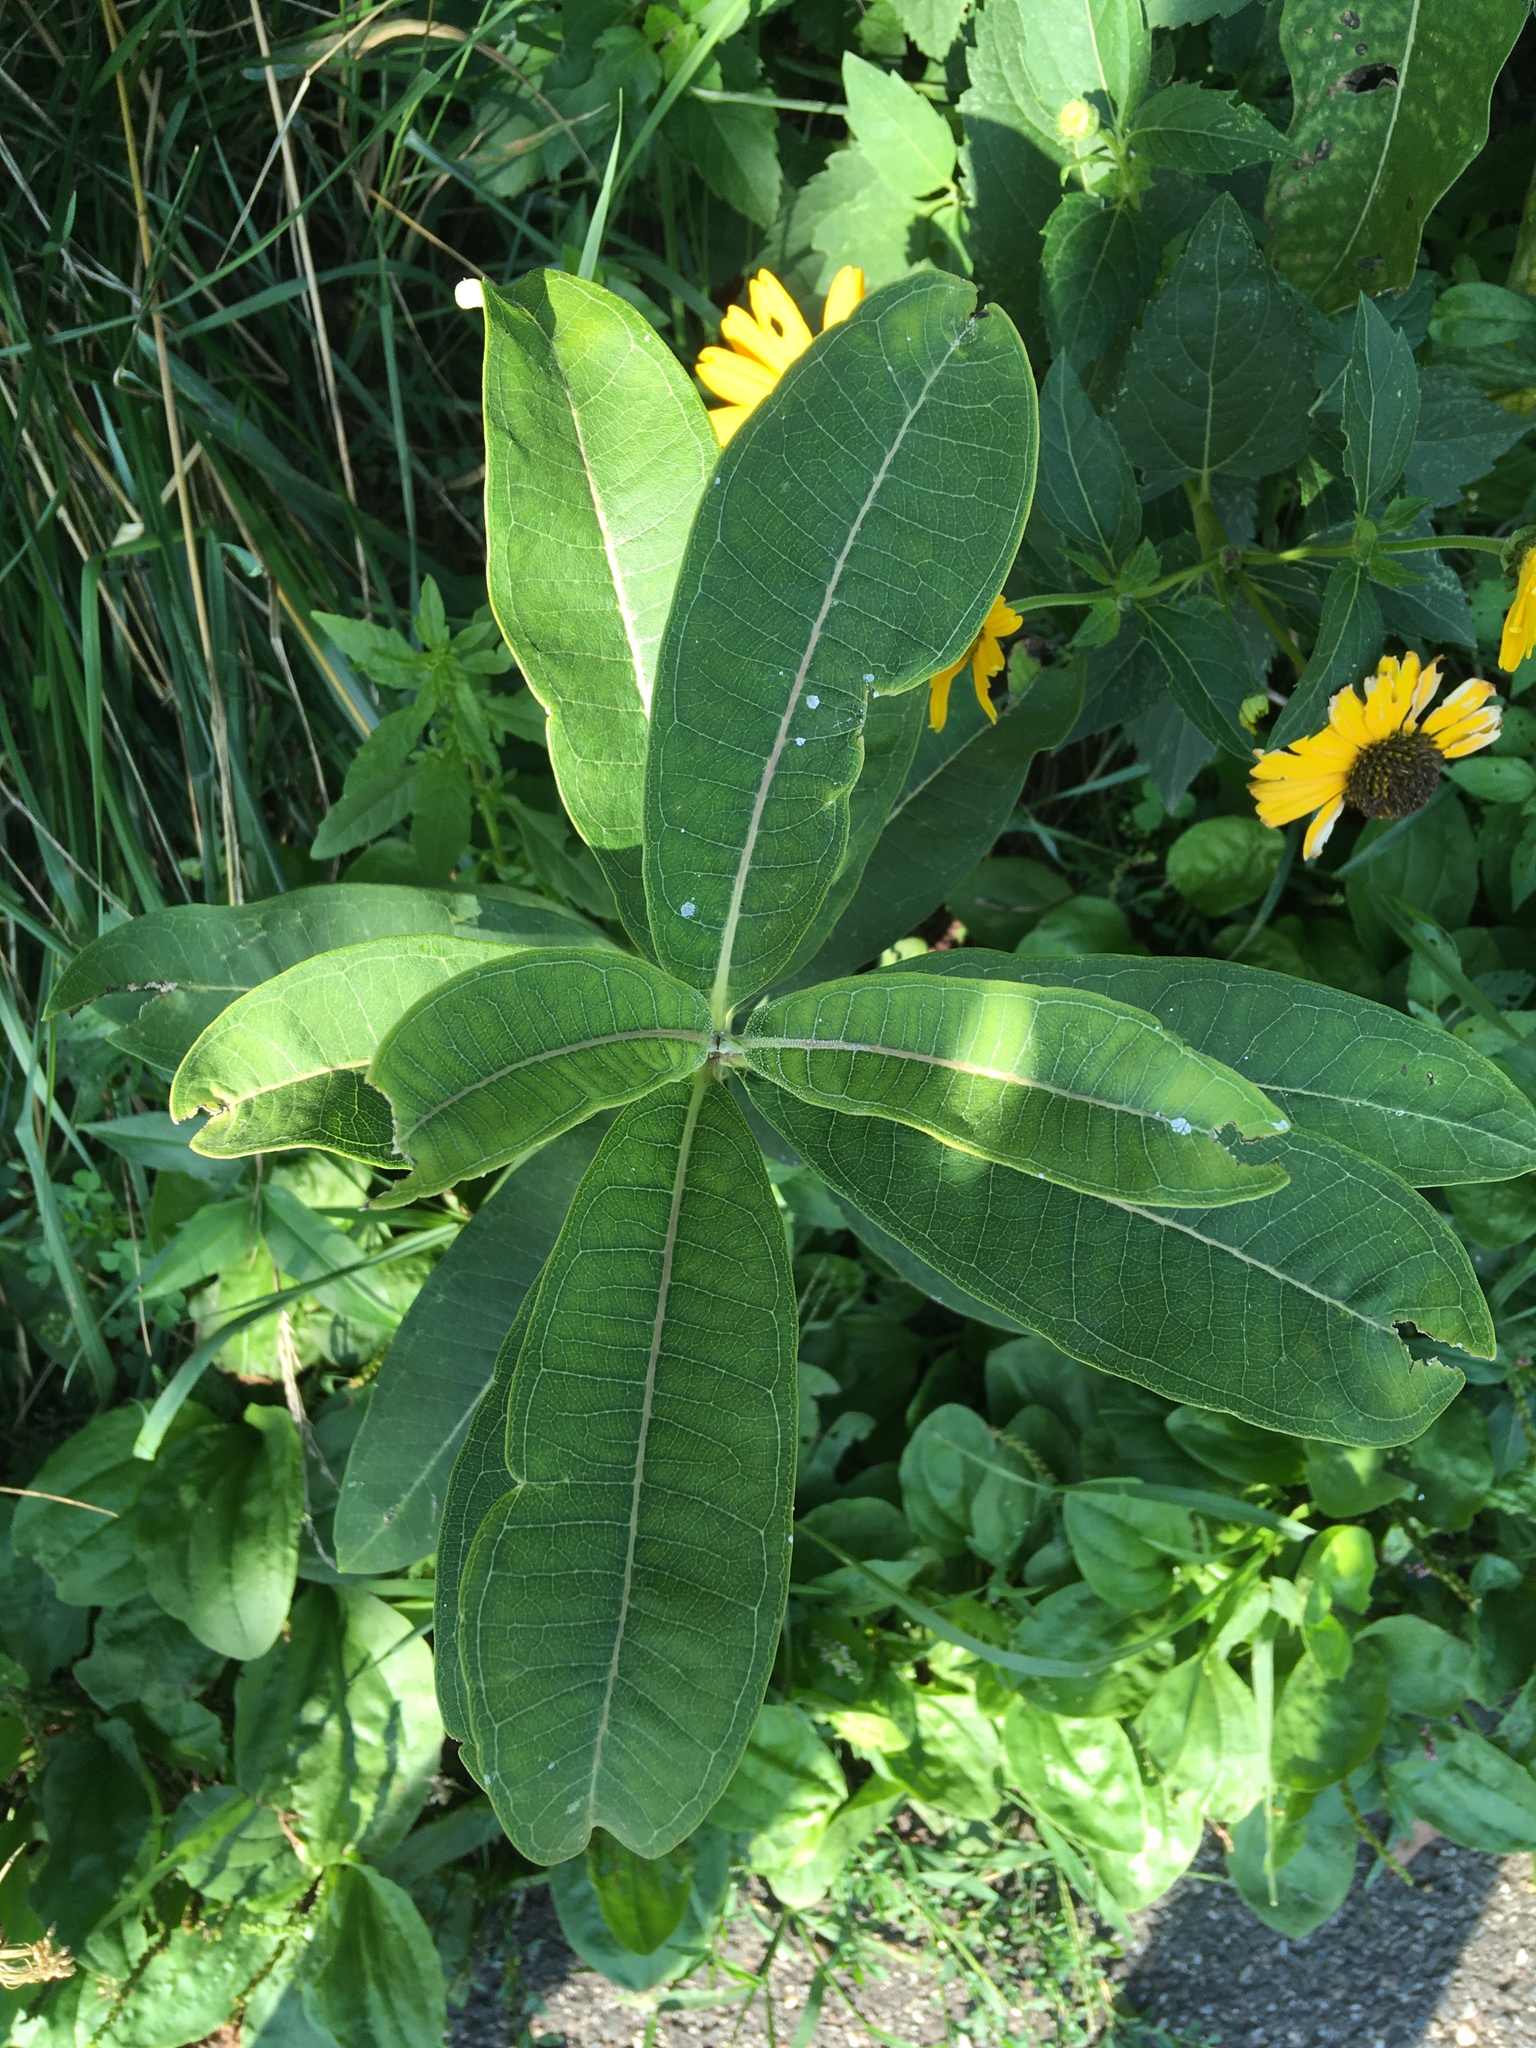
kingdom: Plantae
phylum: Tracheophyta
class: Magnoliopsida
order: Gentianales
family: Apocynaceae
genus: Asclepias
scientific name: Asclepias syriaca
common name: Common milkweed
